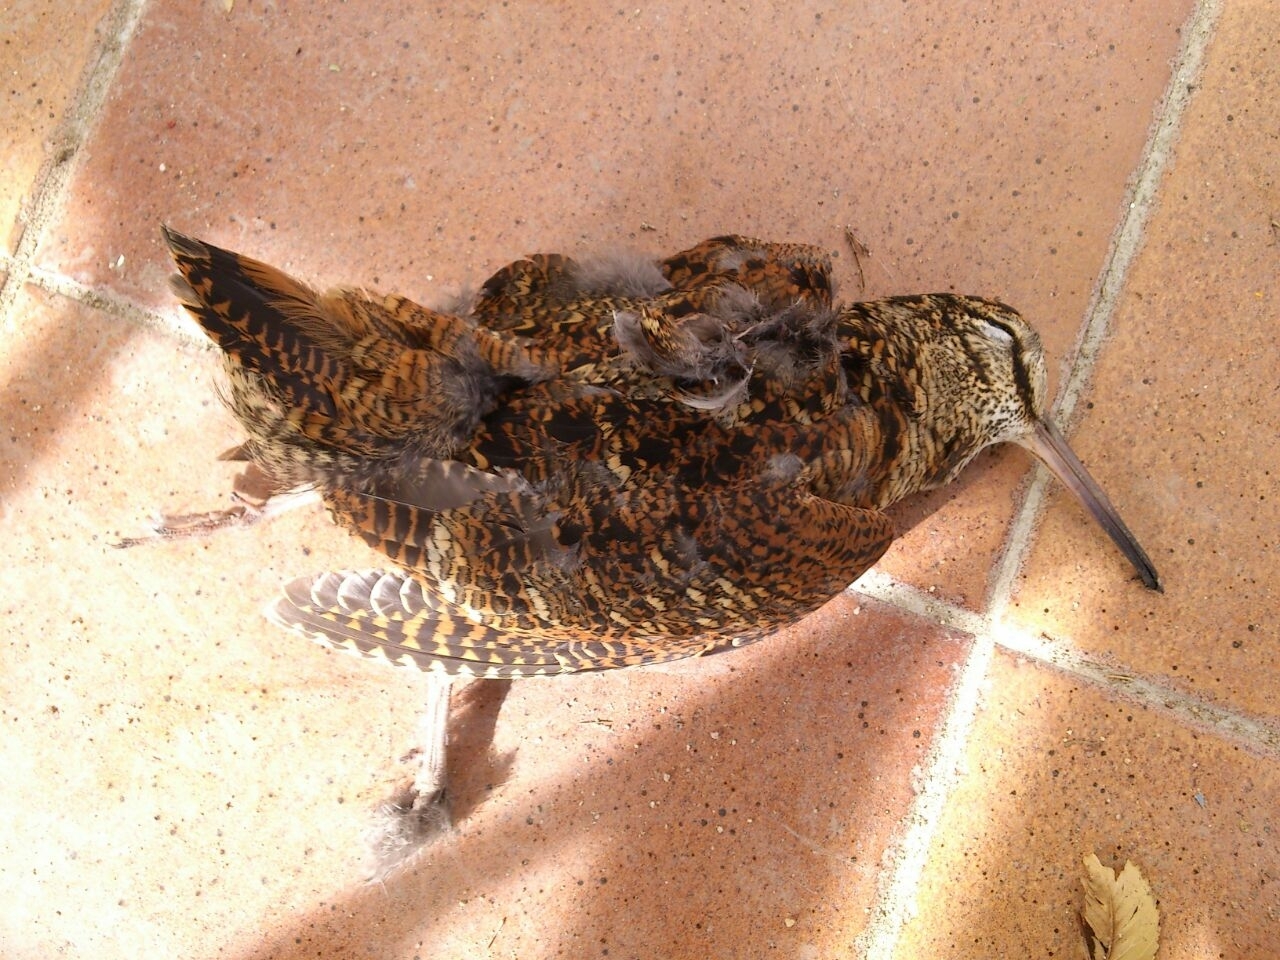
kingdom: Animalia
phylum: Chordata
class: Aves
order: Charadriiformes
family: Scolopacidae
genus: Scolopax
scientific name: Scolopax rusticola
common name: Eurasian woodcock
